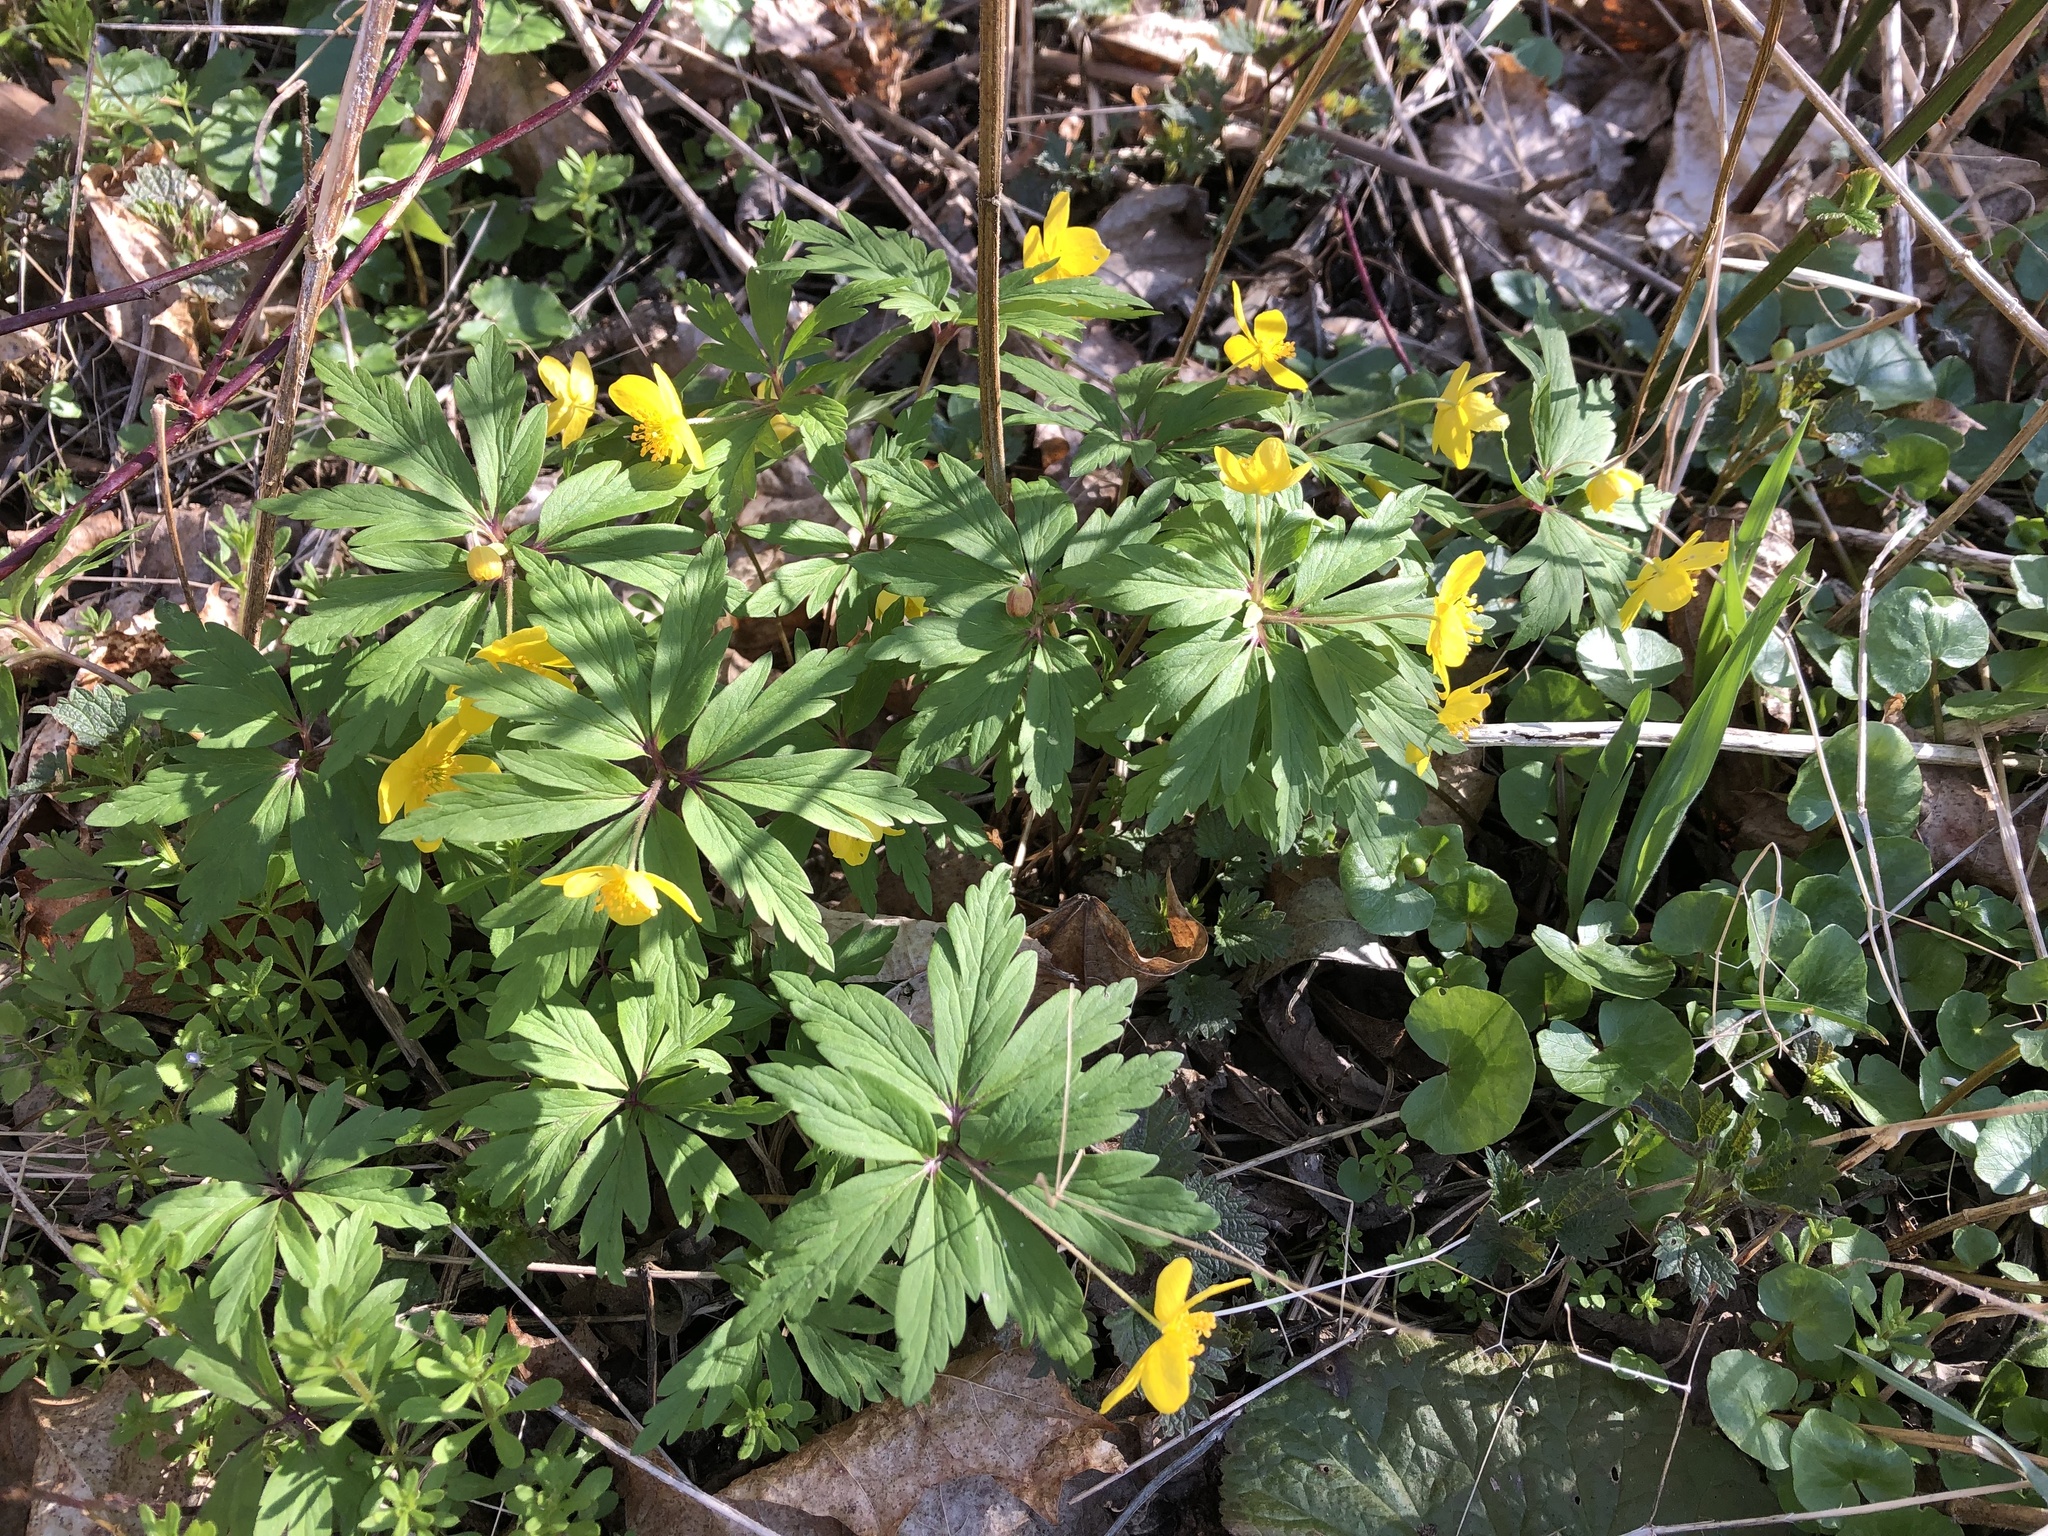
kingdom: Plantae
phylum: Tracheophyta
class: Magnoliopsida
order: Ranunculales
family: Ranunculaceae
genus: Anemone
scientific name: Anemone ranunculoides
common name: Yellow anemone
